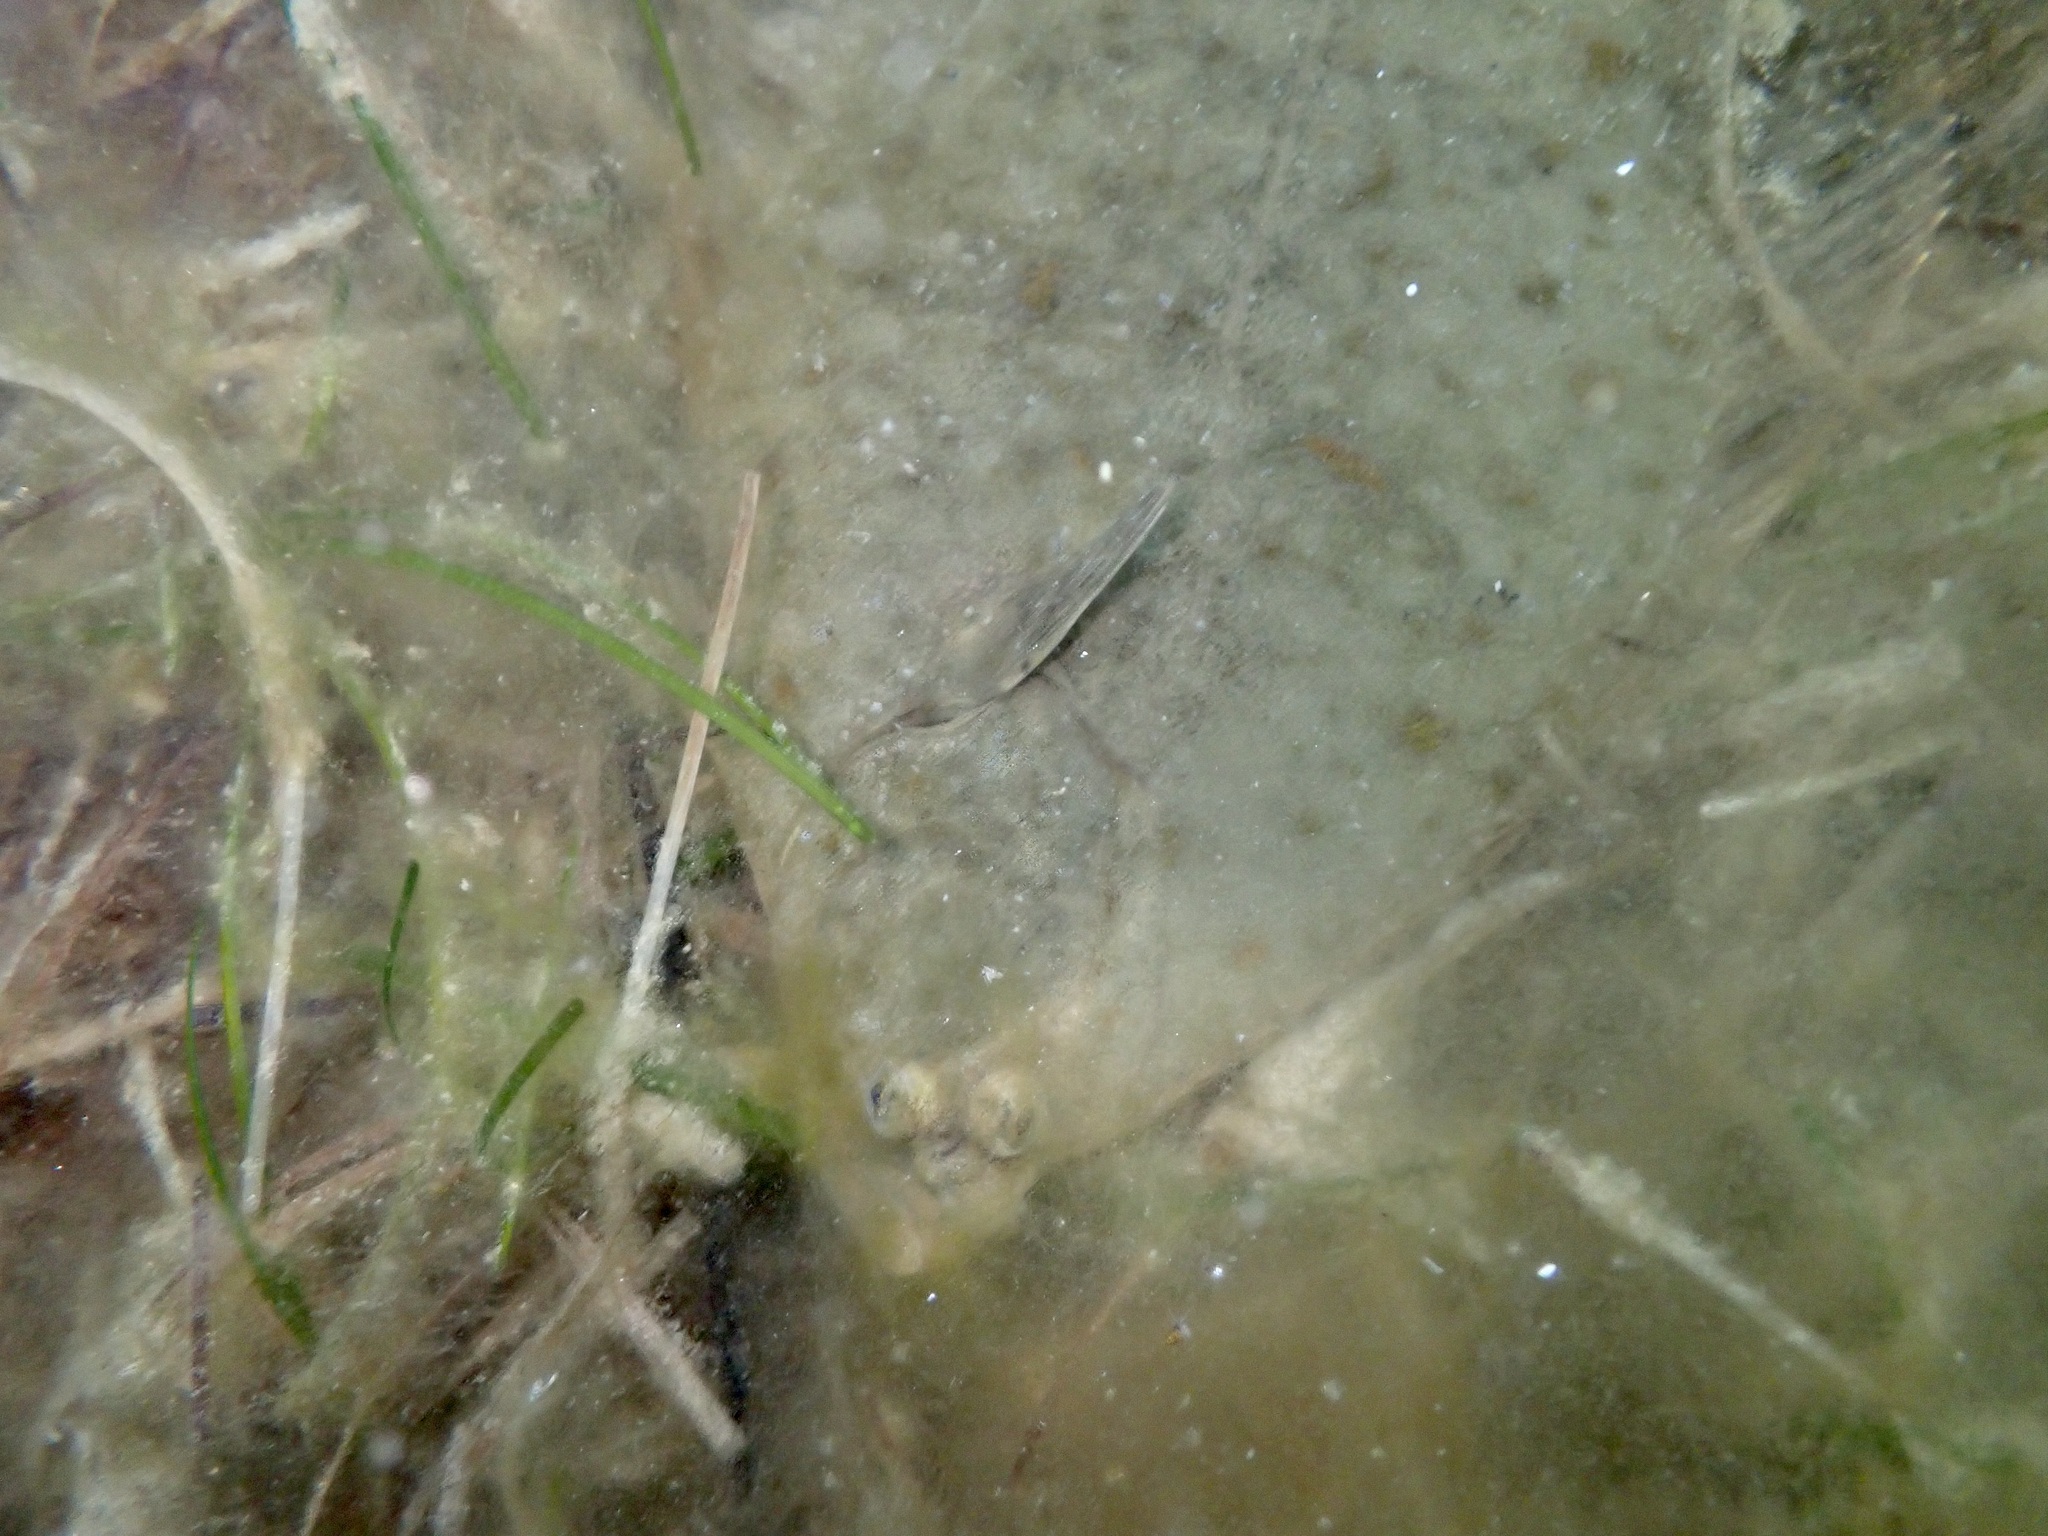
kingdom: Animalia
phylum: Chordata
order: Pleuronectiformes
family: Pleuronectidae
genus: Pleuronectes
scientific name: Pleuronectes platessa
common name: Plaice
